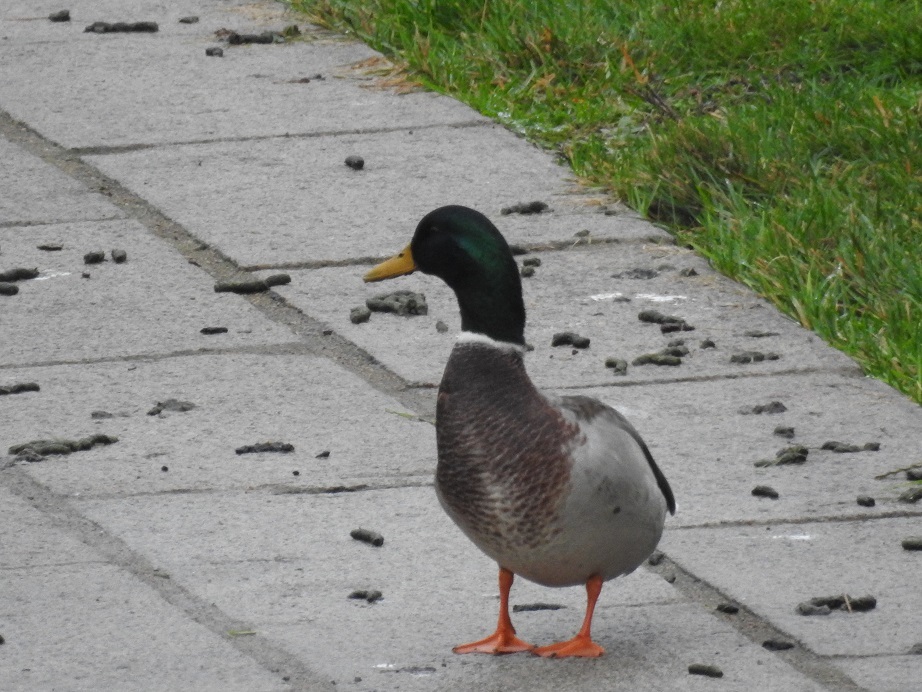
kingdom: Animalia
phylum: Chordata
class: Aves
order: Anseriformes
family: Anatidae
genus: Anas
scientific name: Anas platyrhynchos
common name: Mallard
